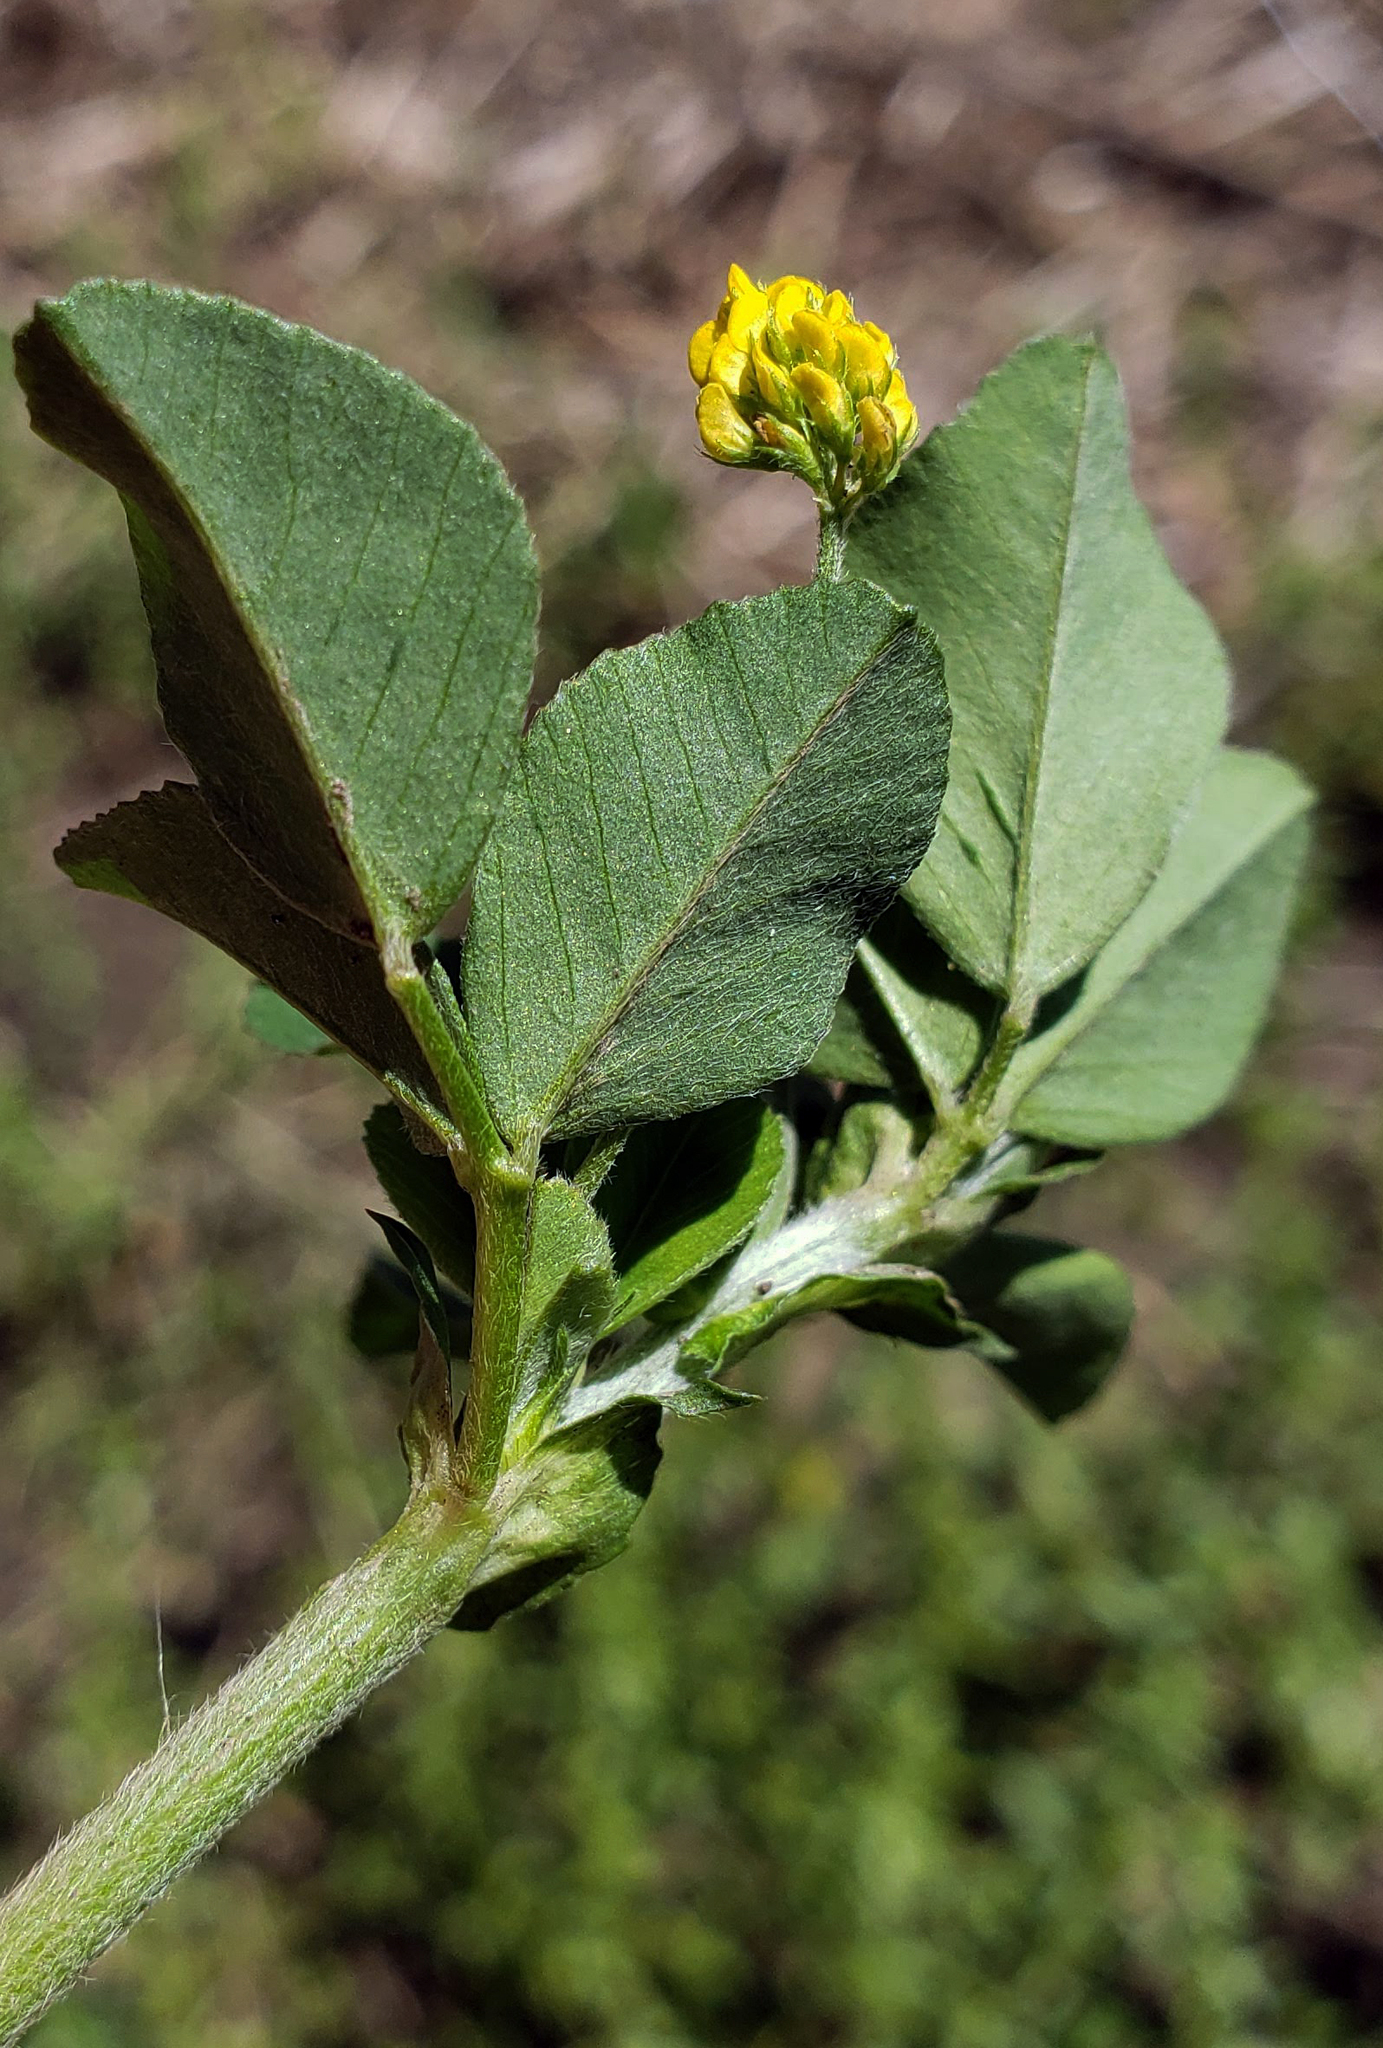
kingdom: Plantae
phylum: Tracheophyta
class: Magnoliopsida
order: Fabales
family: Fabaceae
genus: Medicago
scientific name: Medicago lupulina
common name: Black medick
